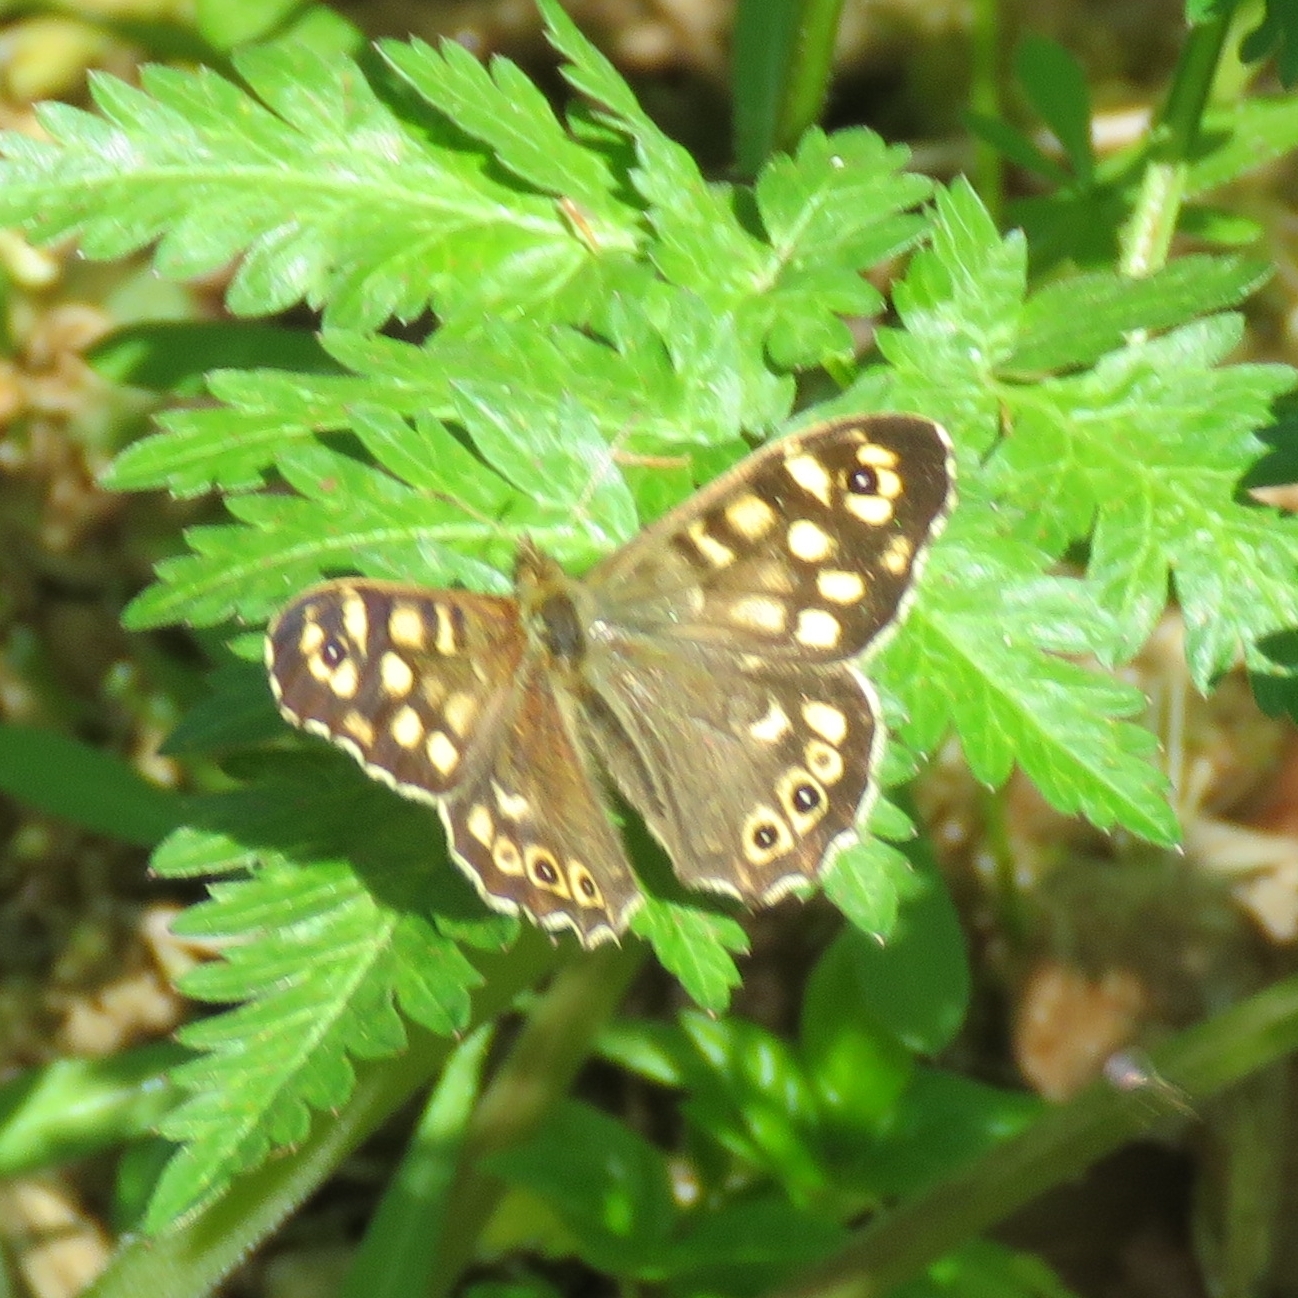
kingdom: Animalia
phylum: Arthropoda
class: Insecta
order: Lepidoptera
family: Nymphalidae
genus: Pararge
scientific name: Pararge aegeria
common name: Speckled wood
